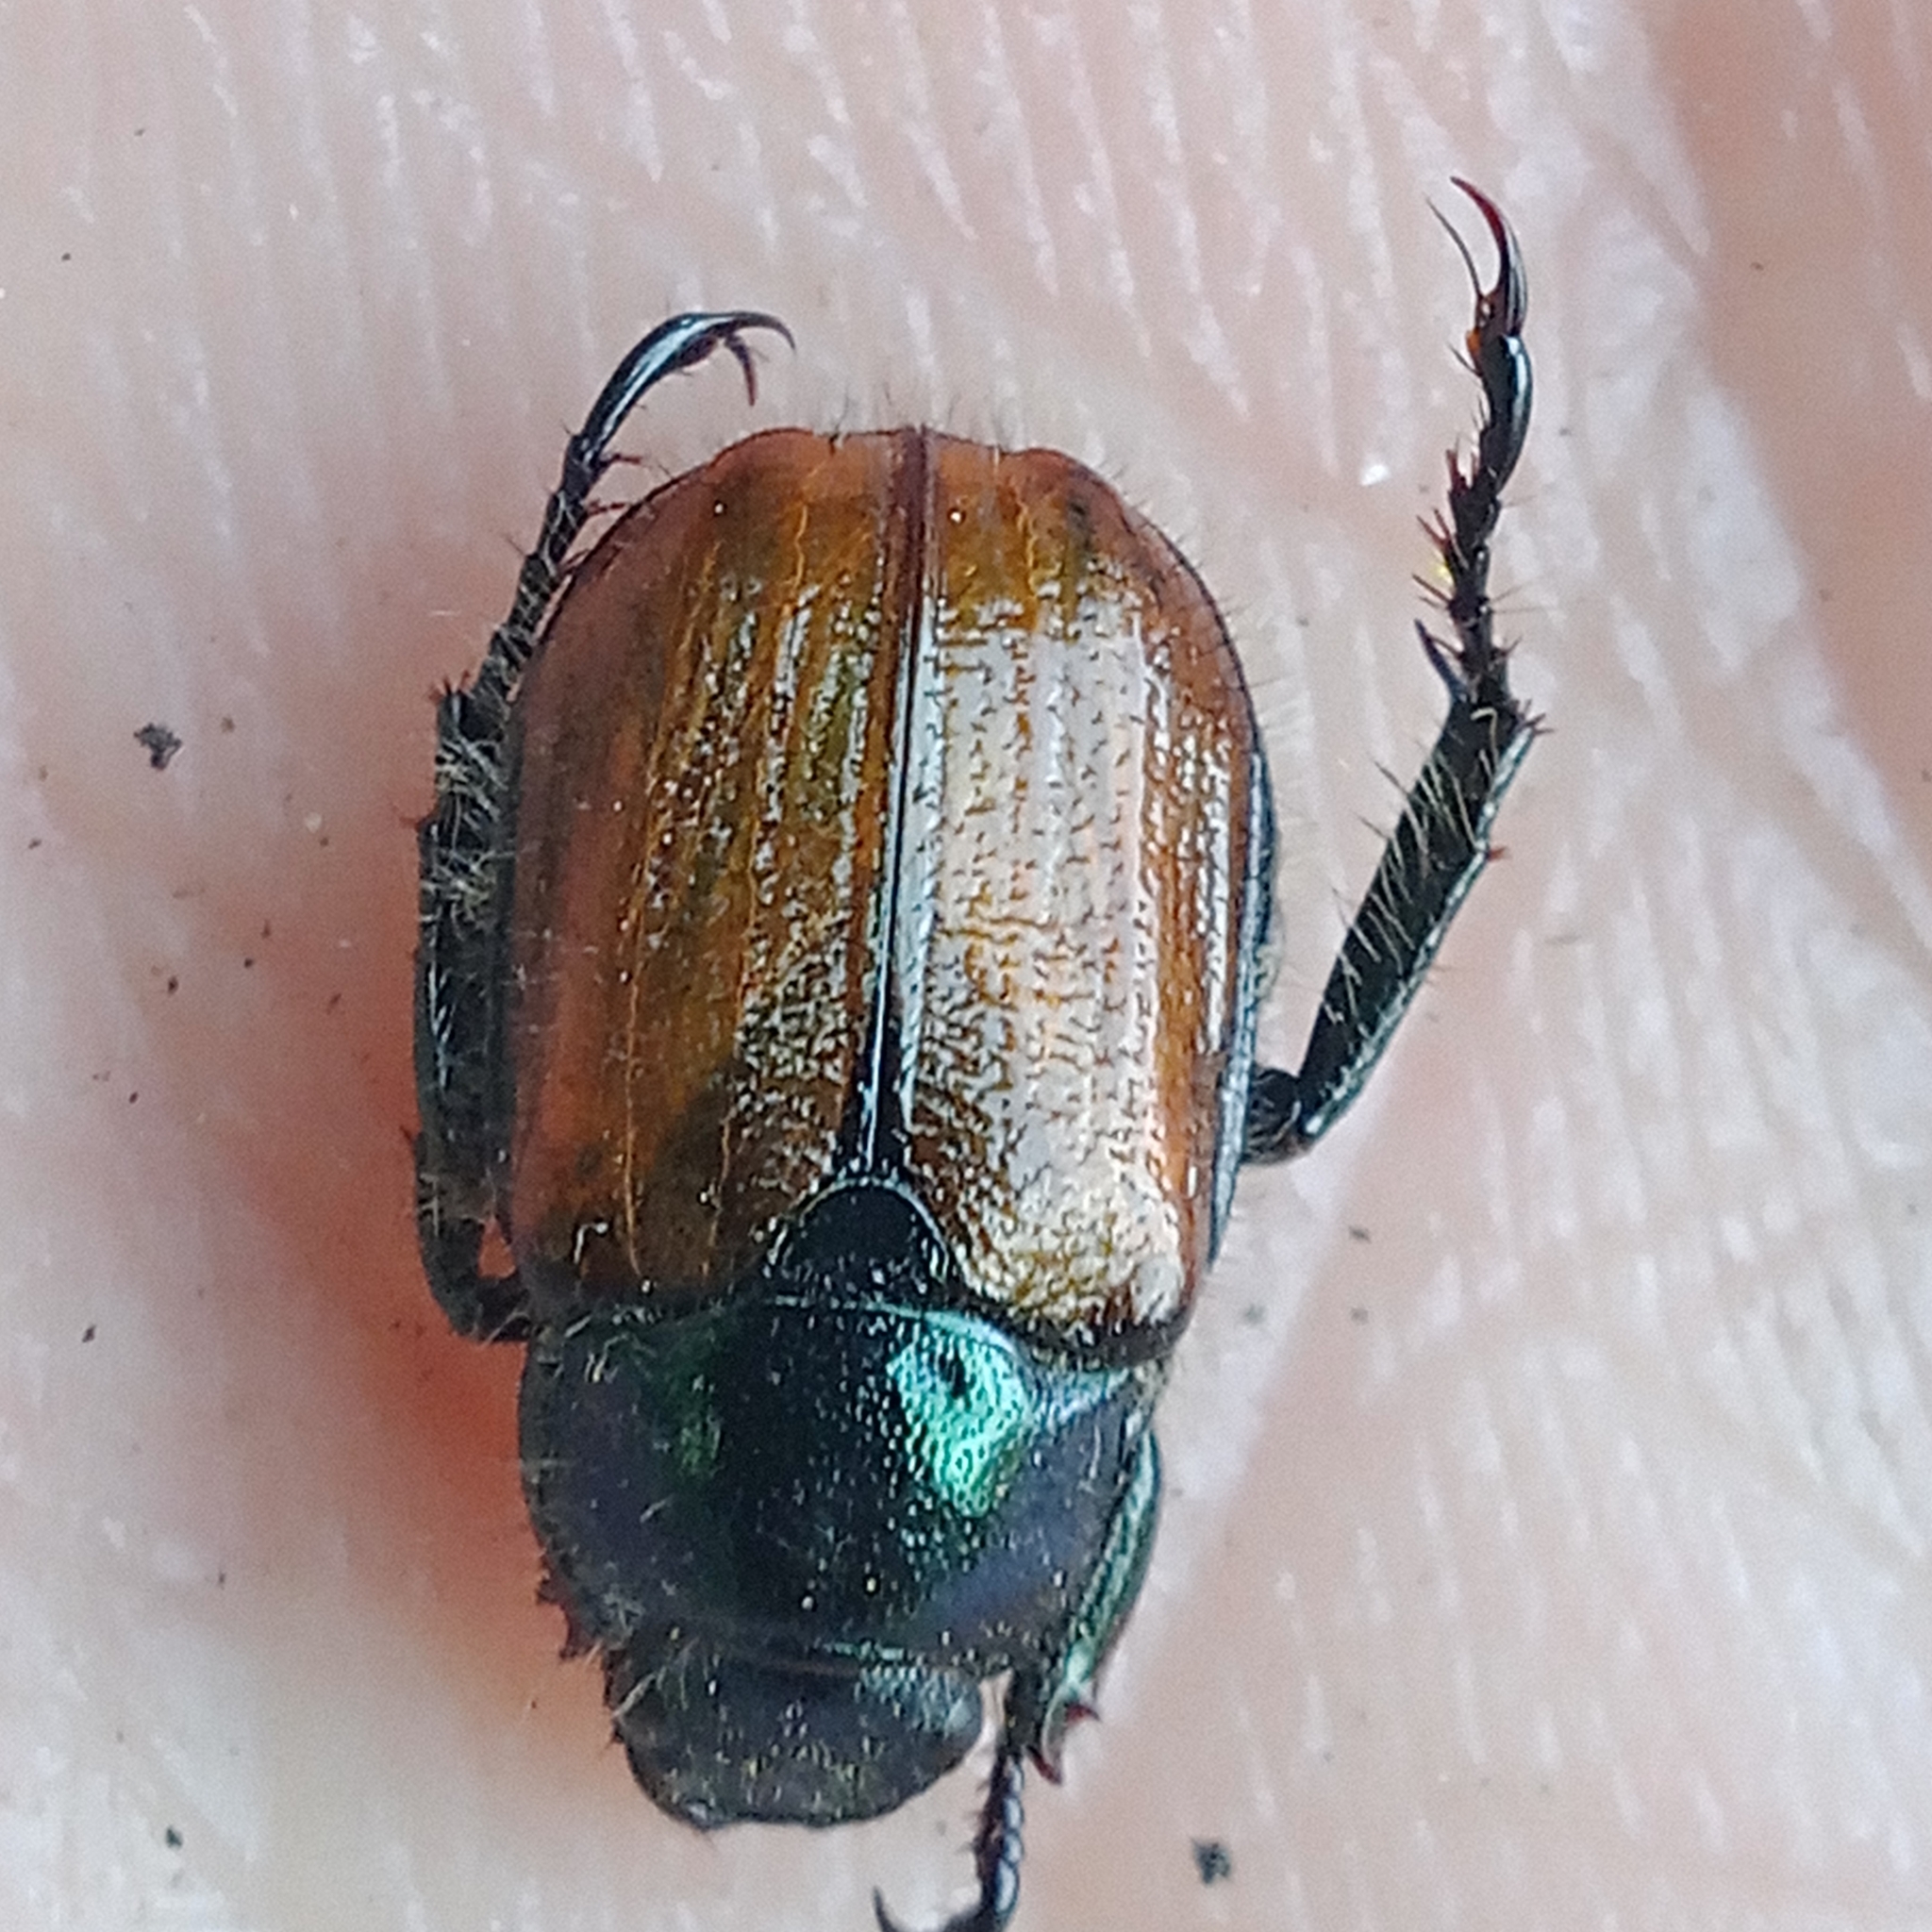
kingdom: Animalia
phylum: Arthropoda
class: Insecta
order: Coleoptera
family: Scarabaeidae
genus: Phyllopertha
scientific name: Phyllopertha horticola
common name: Garden chafer
